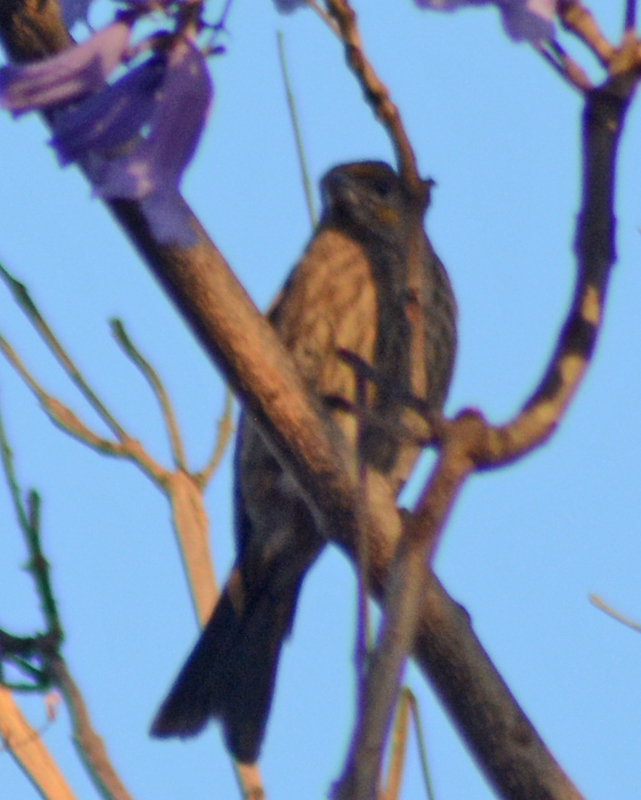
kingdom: Animalia
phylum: Chordata
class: Aves
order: Passeriformes
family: Fringillidae
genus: Haemorhous
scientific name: Haemorhous mexicanus
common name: House finch
